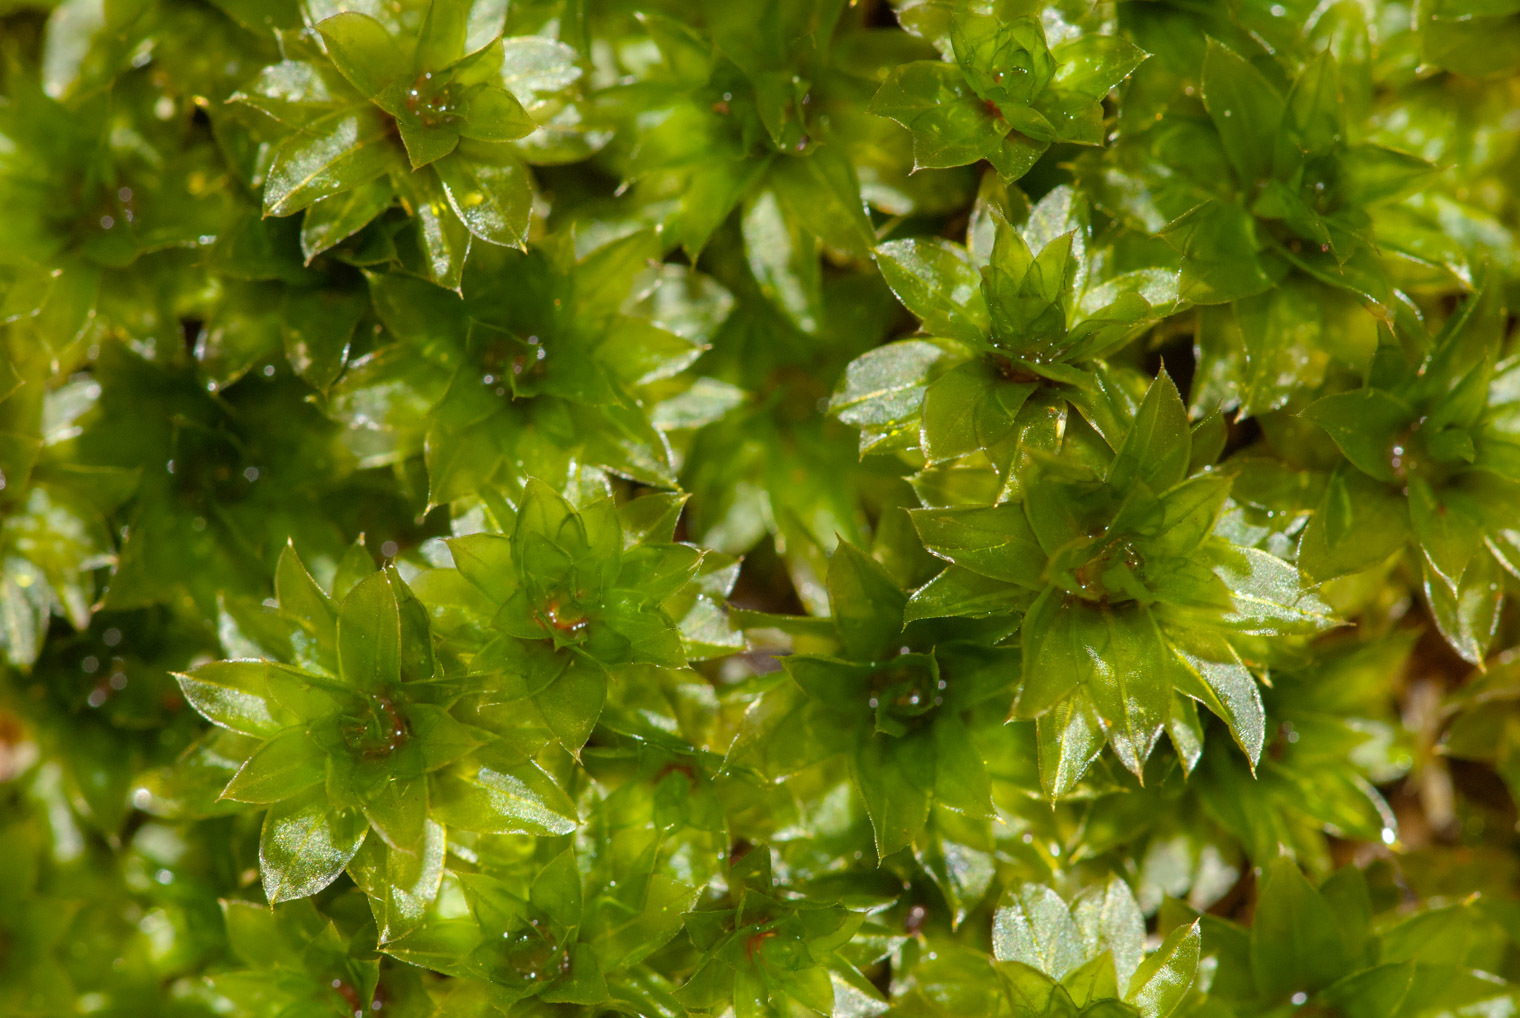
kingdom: Plantae
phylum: Bryophyta
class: Bryopsida
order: Bryales
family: Bryaceae
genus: Rosulabryum
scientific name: Rosulabryum billardierei
